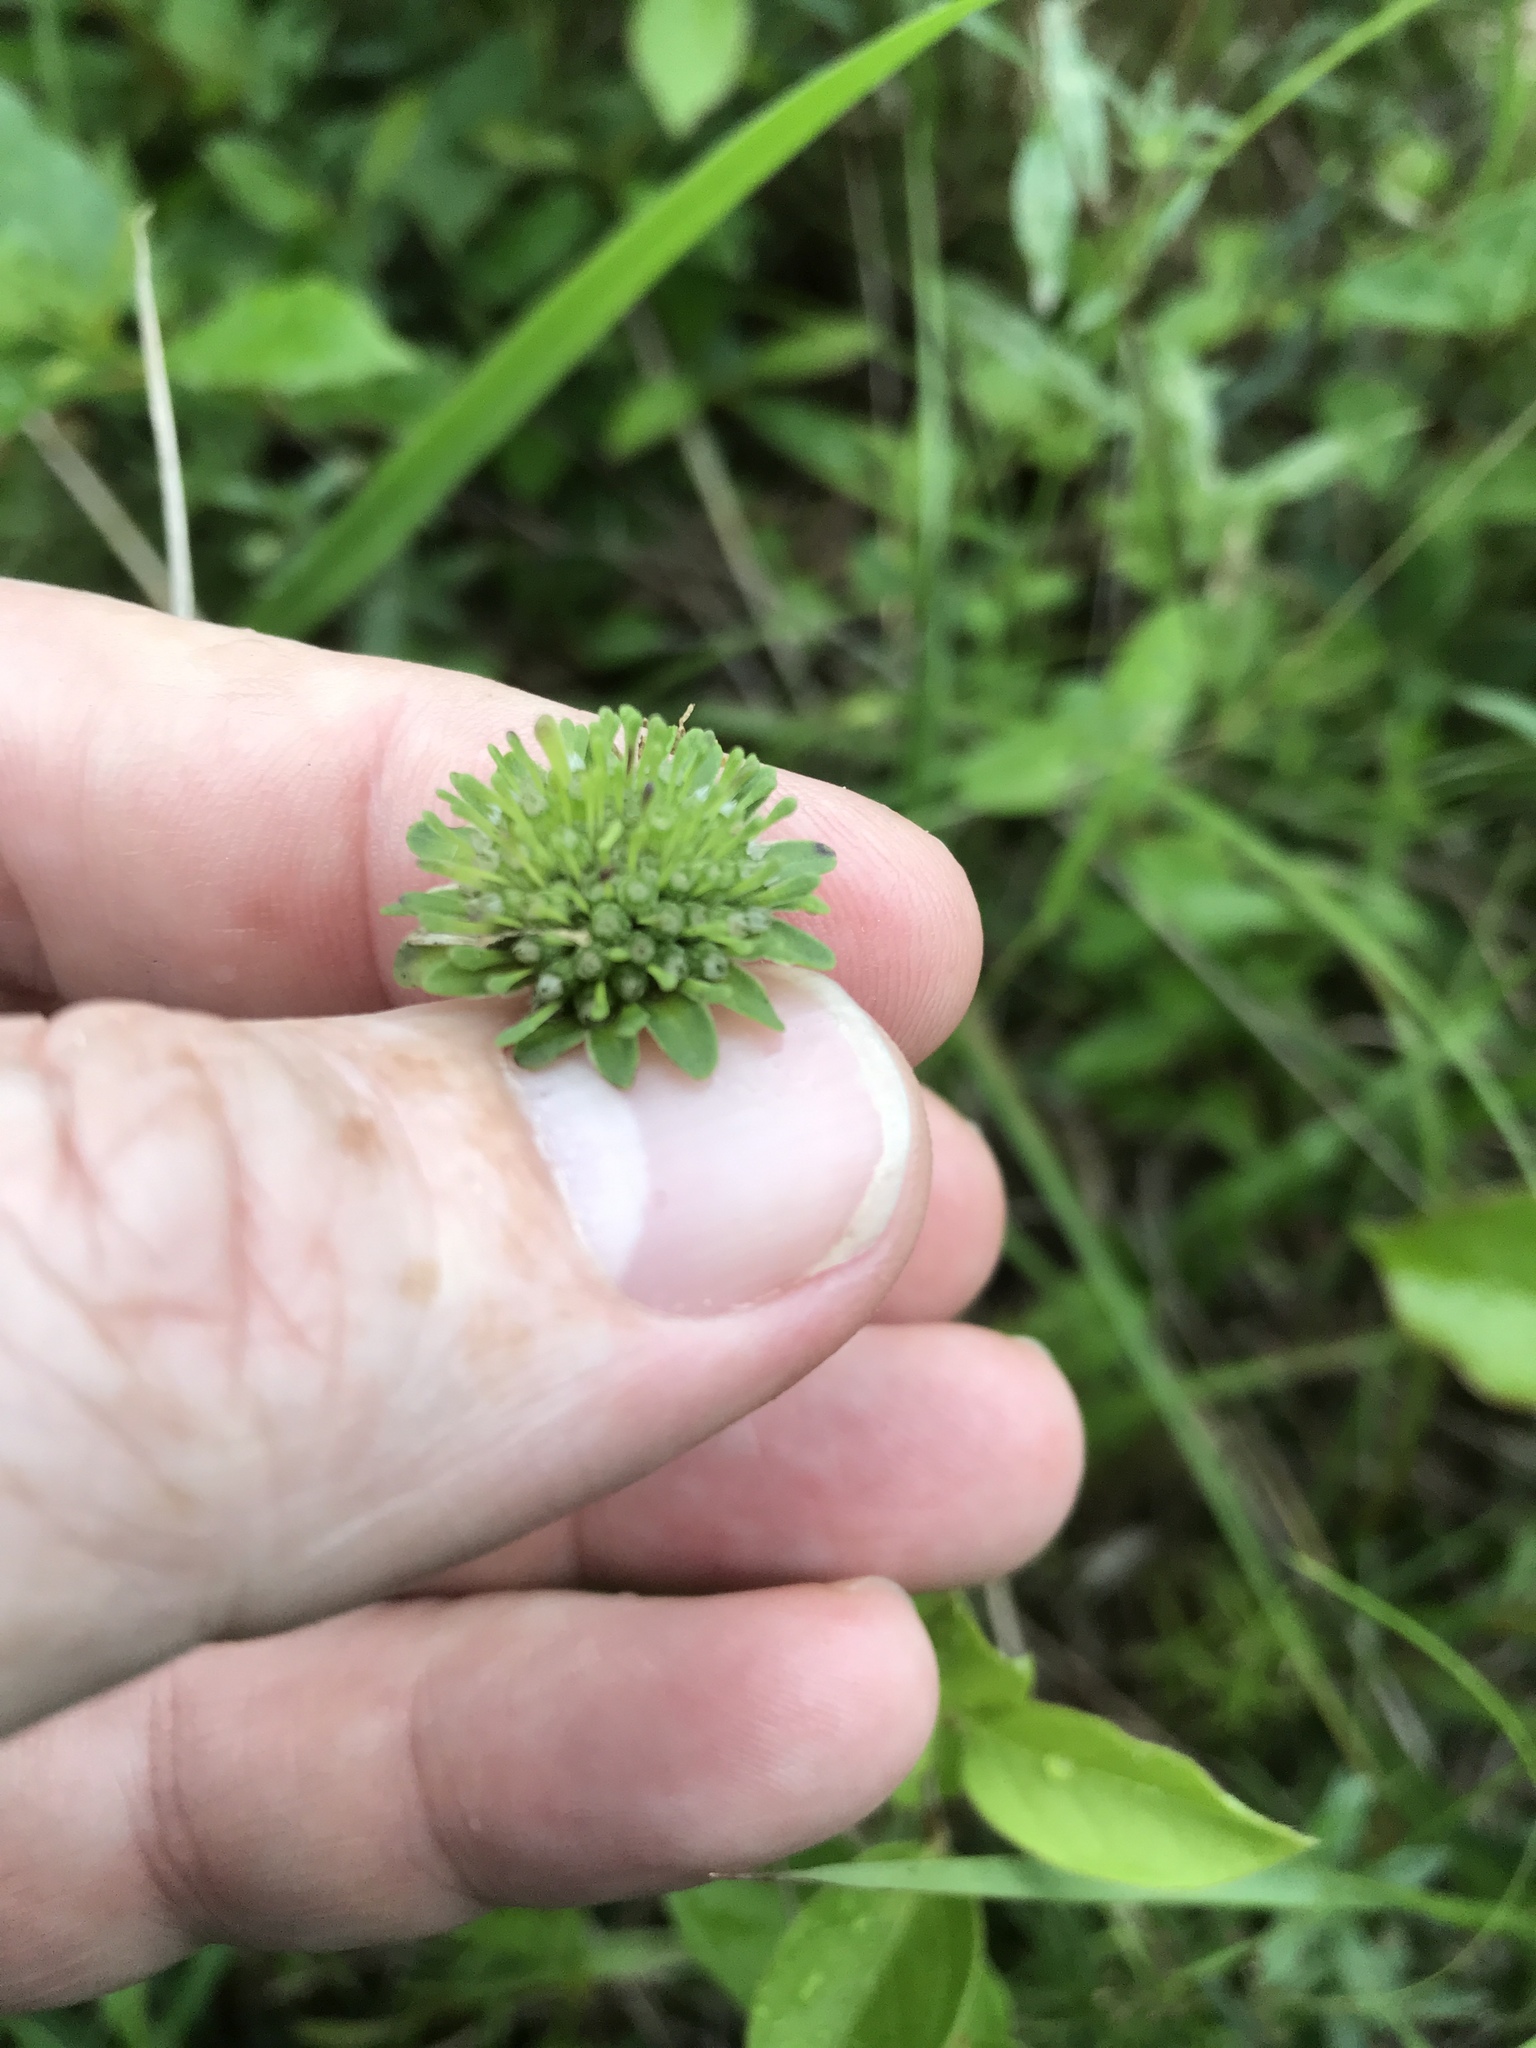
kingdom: Plantae
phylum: Tracheophyta
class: Magnoliopsida
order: Asterales
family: Asteraceae
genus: Marshallia
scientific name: Marshallia obovata
